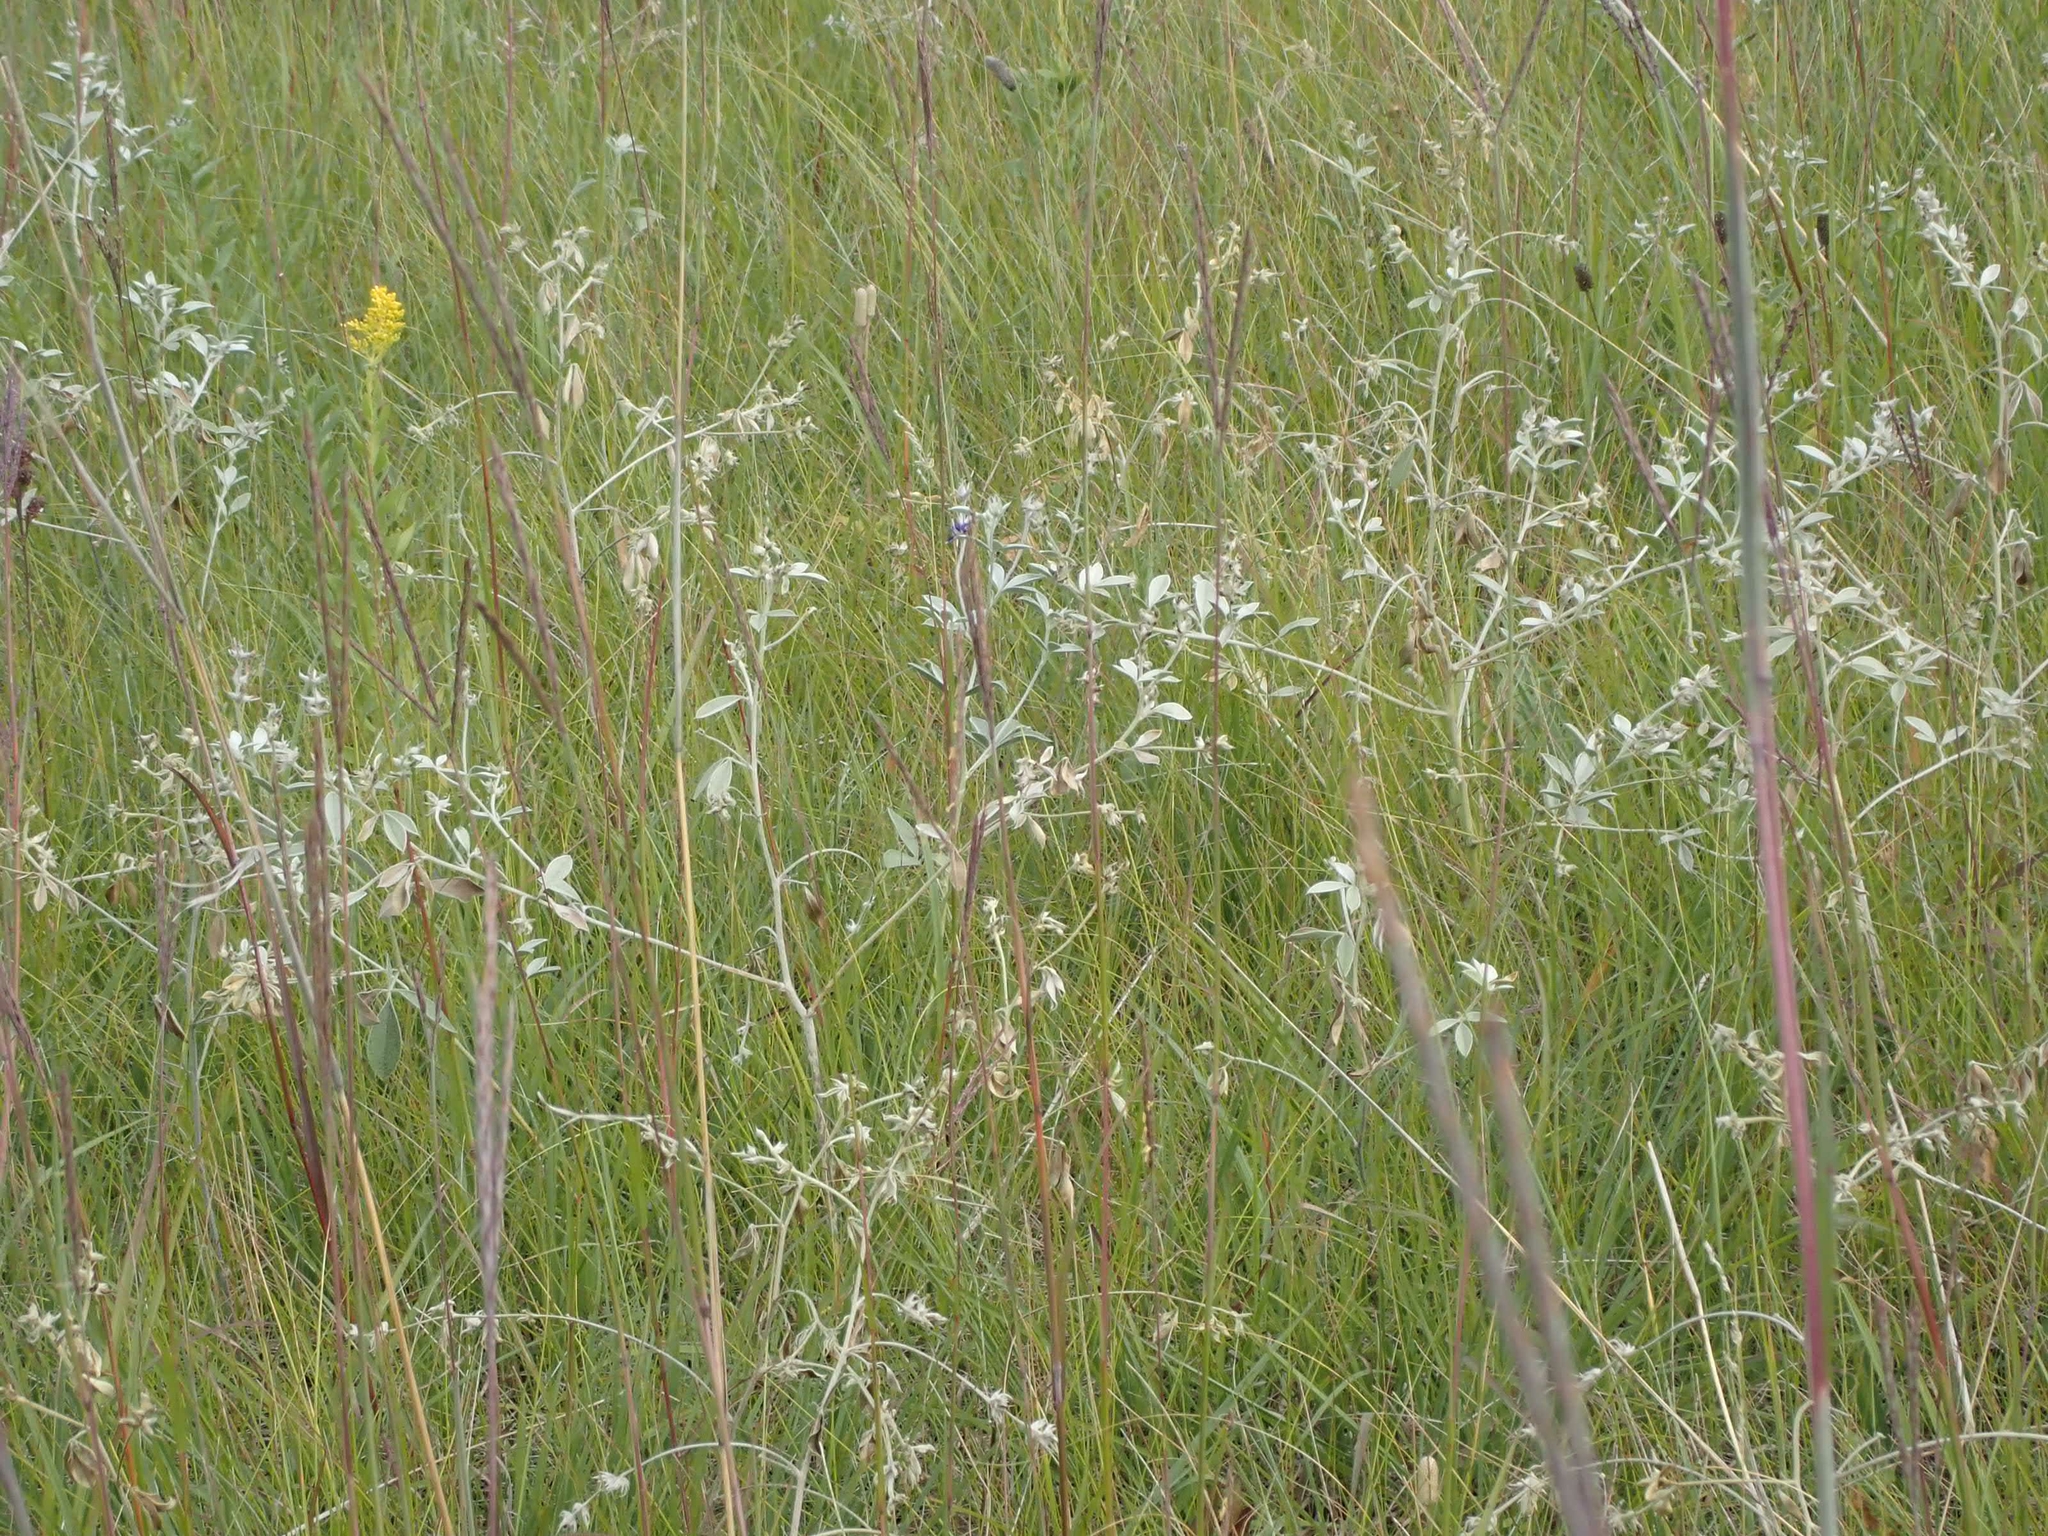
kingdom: Plantae
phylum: Tracheophyta
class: Magnoliopsida
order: Fabales
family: Fabaceae
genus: Pediomelum
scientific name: Pediomelum argophyllum
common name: Silver-leaved indian breadroot
